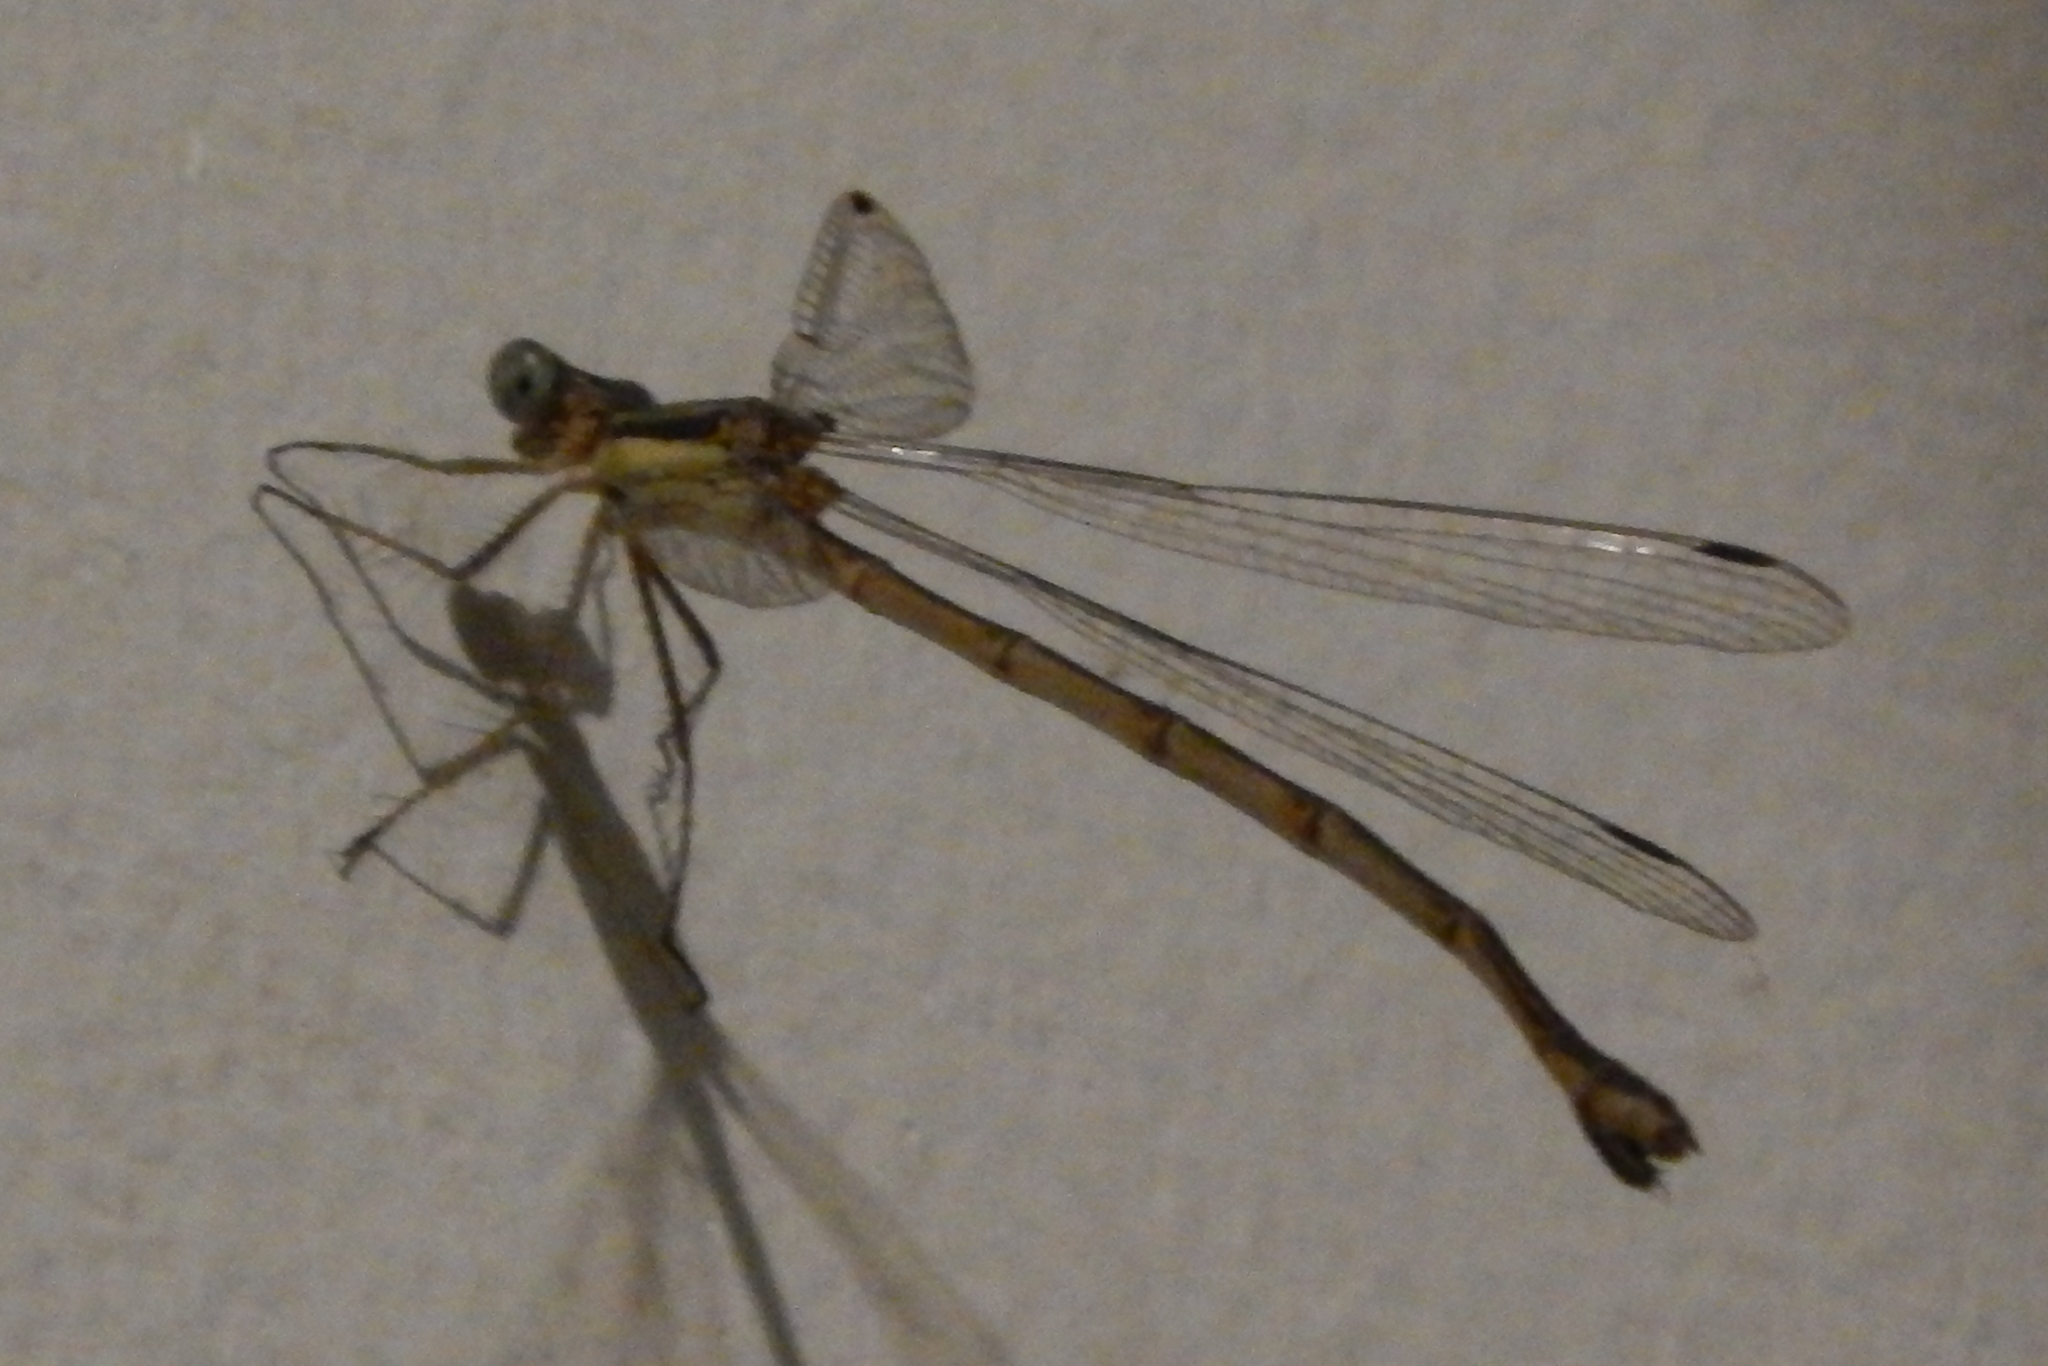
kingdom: Animalia
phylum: Arthropoda
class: Insecta
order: Odonata
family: Lestidae
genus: Lestes
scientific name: Lestes rectangularis
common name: Slender spreadwing
